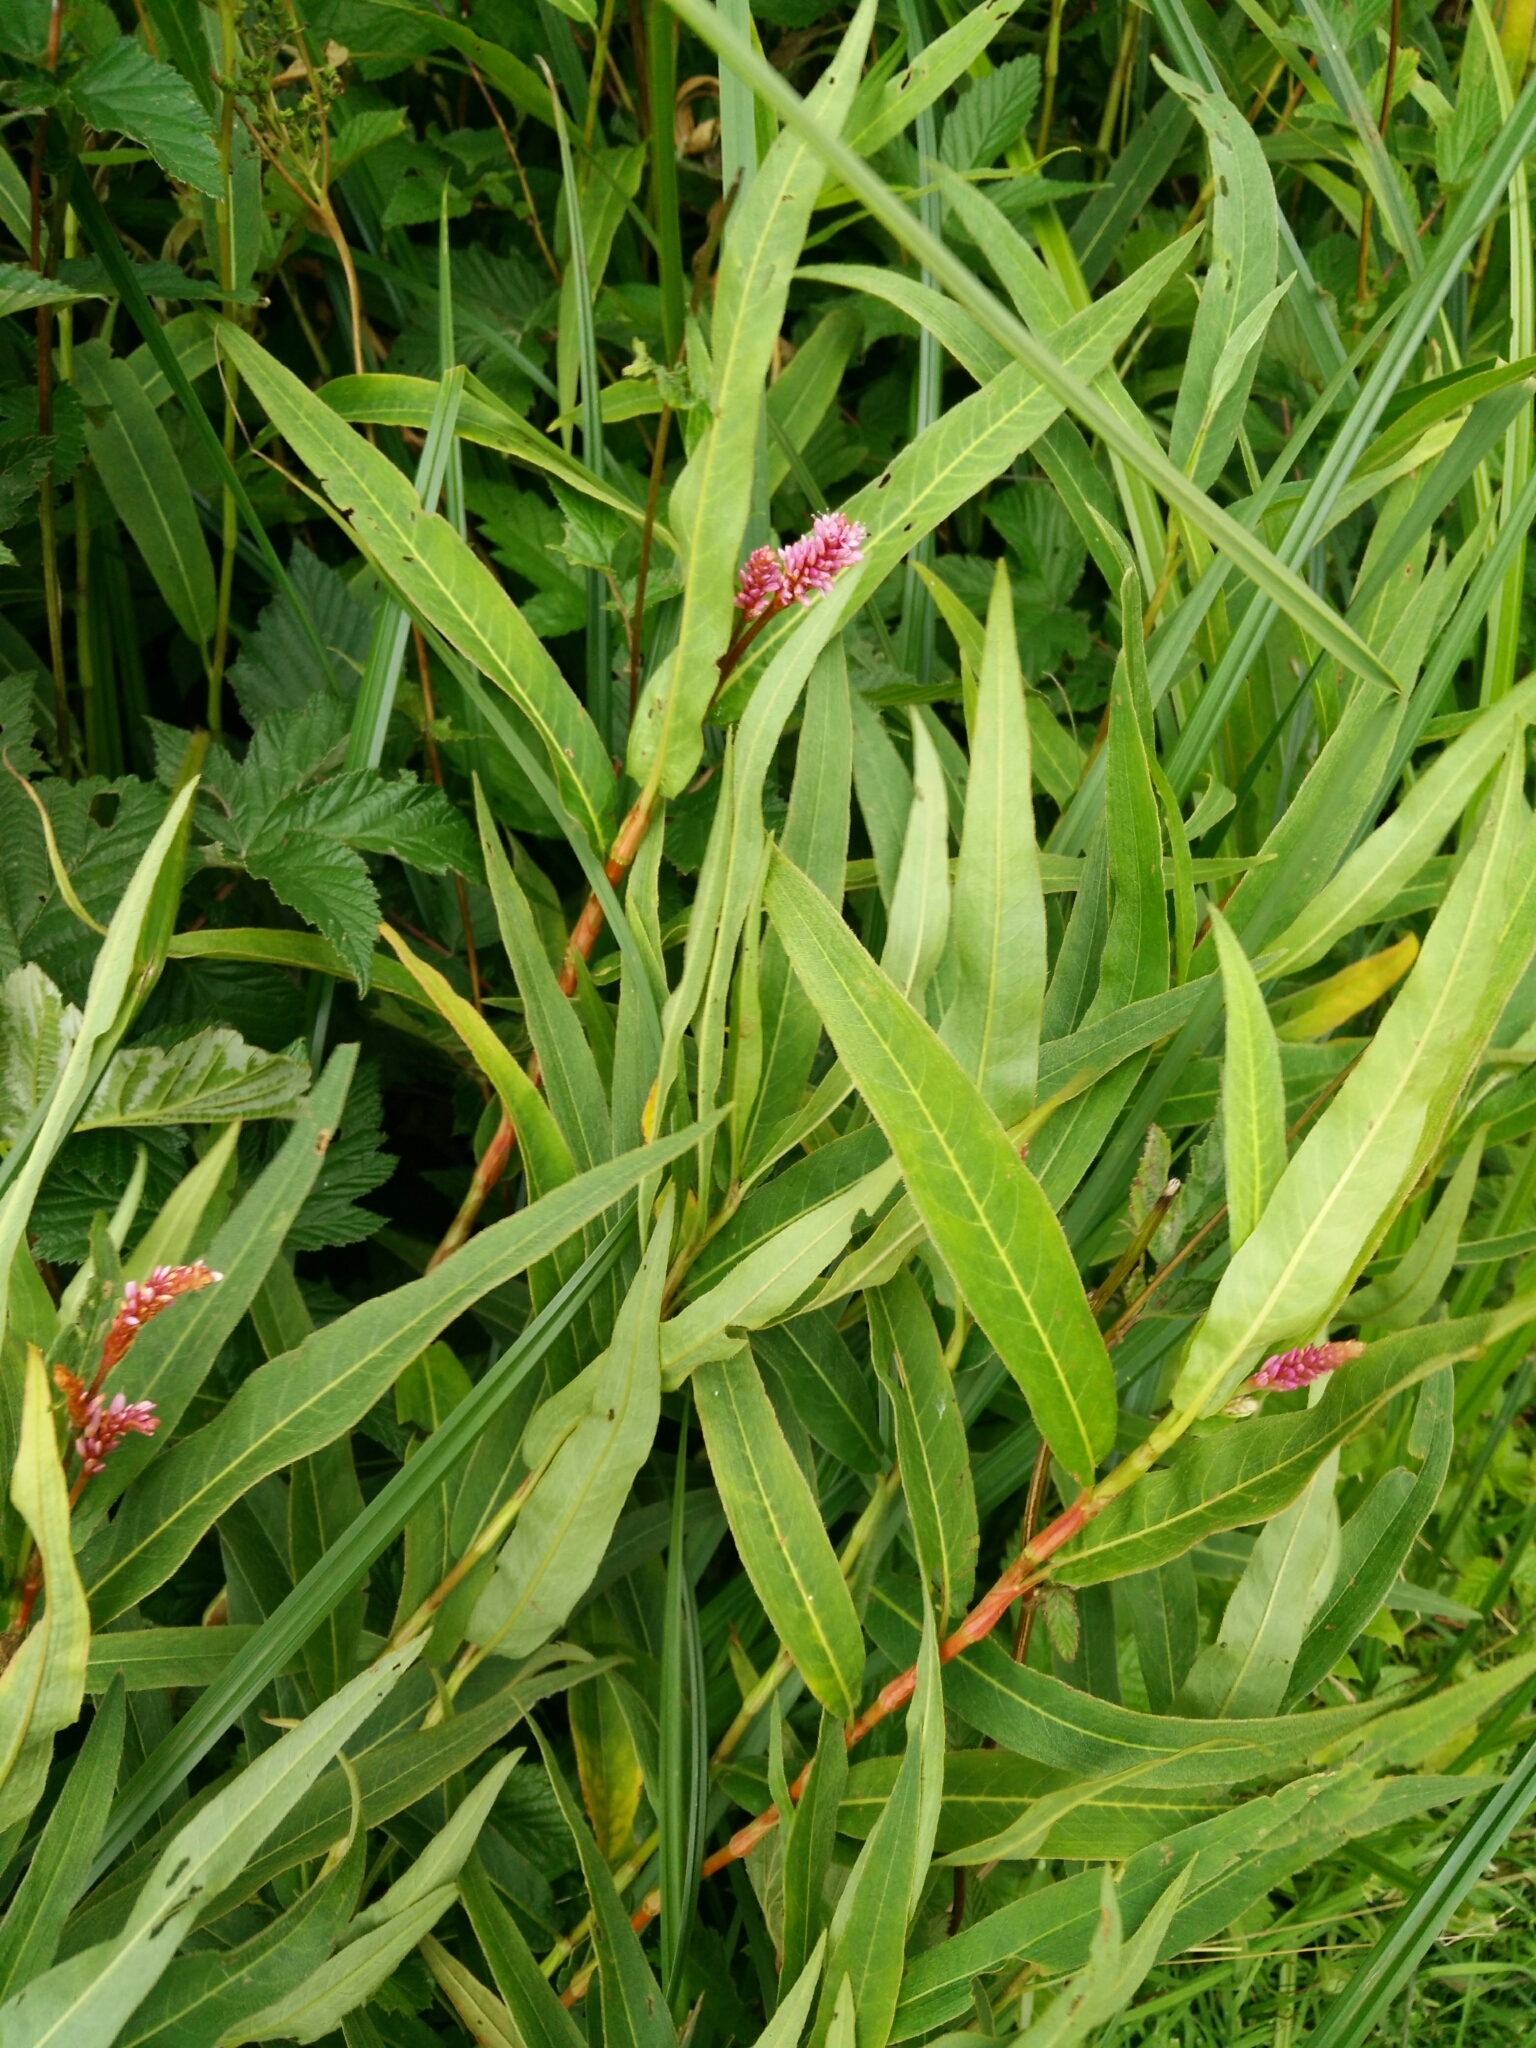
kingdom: Plantae
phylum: Tracheophyta
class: Magnoliopsida
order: Caryophyllales
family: Polygonaceae
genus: Persicaria
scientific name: Persicaria amphibia
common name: Amphibious bistort
